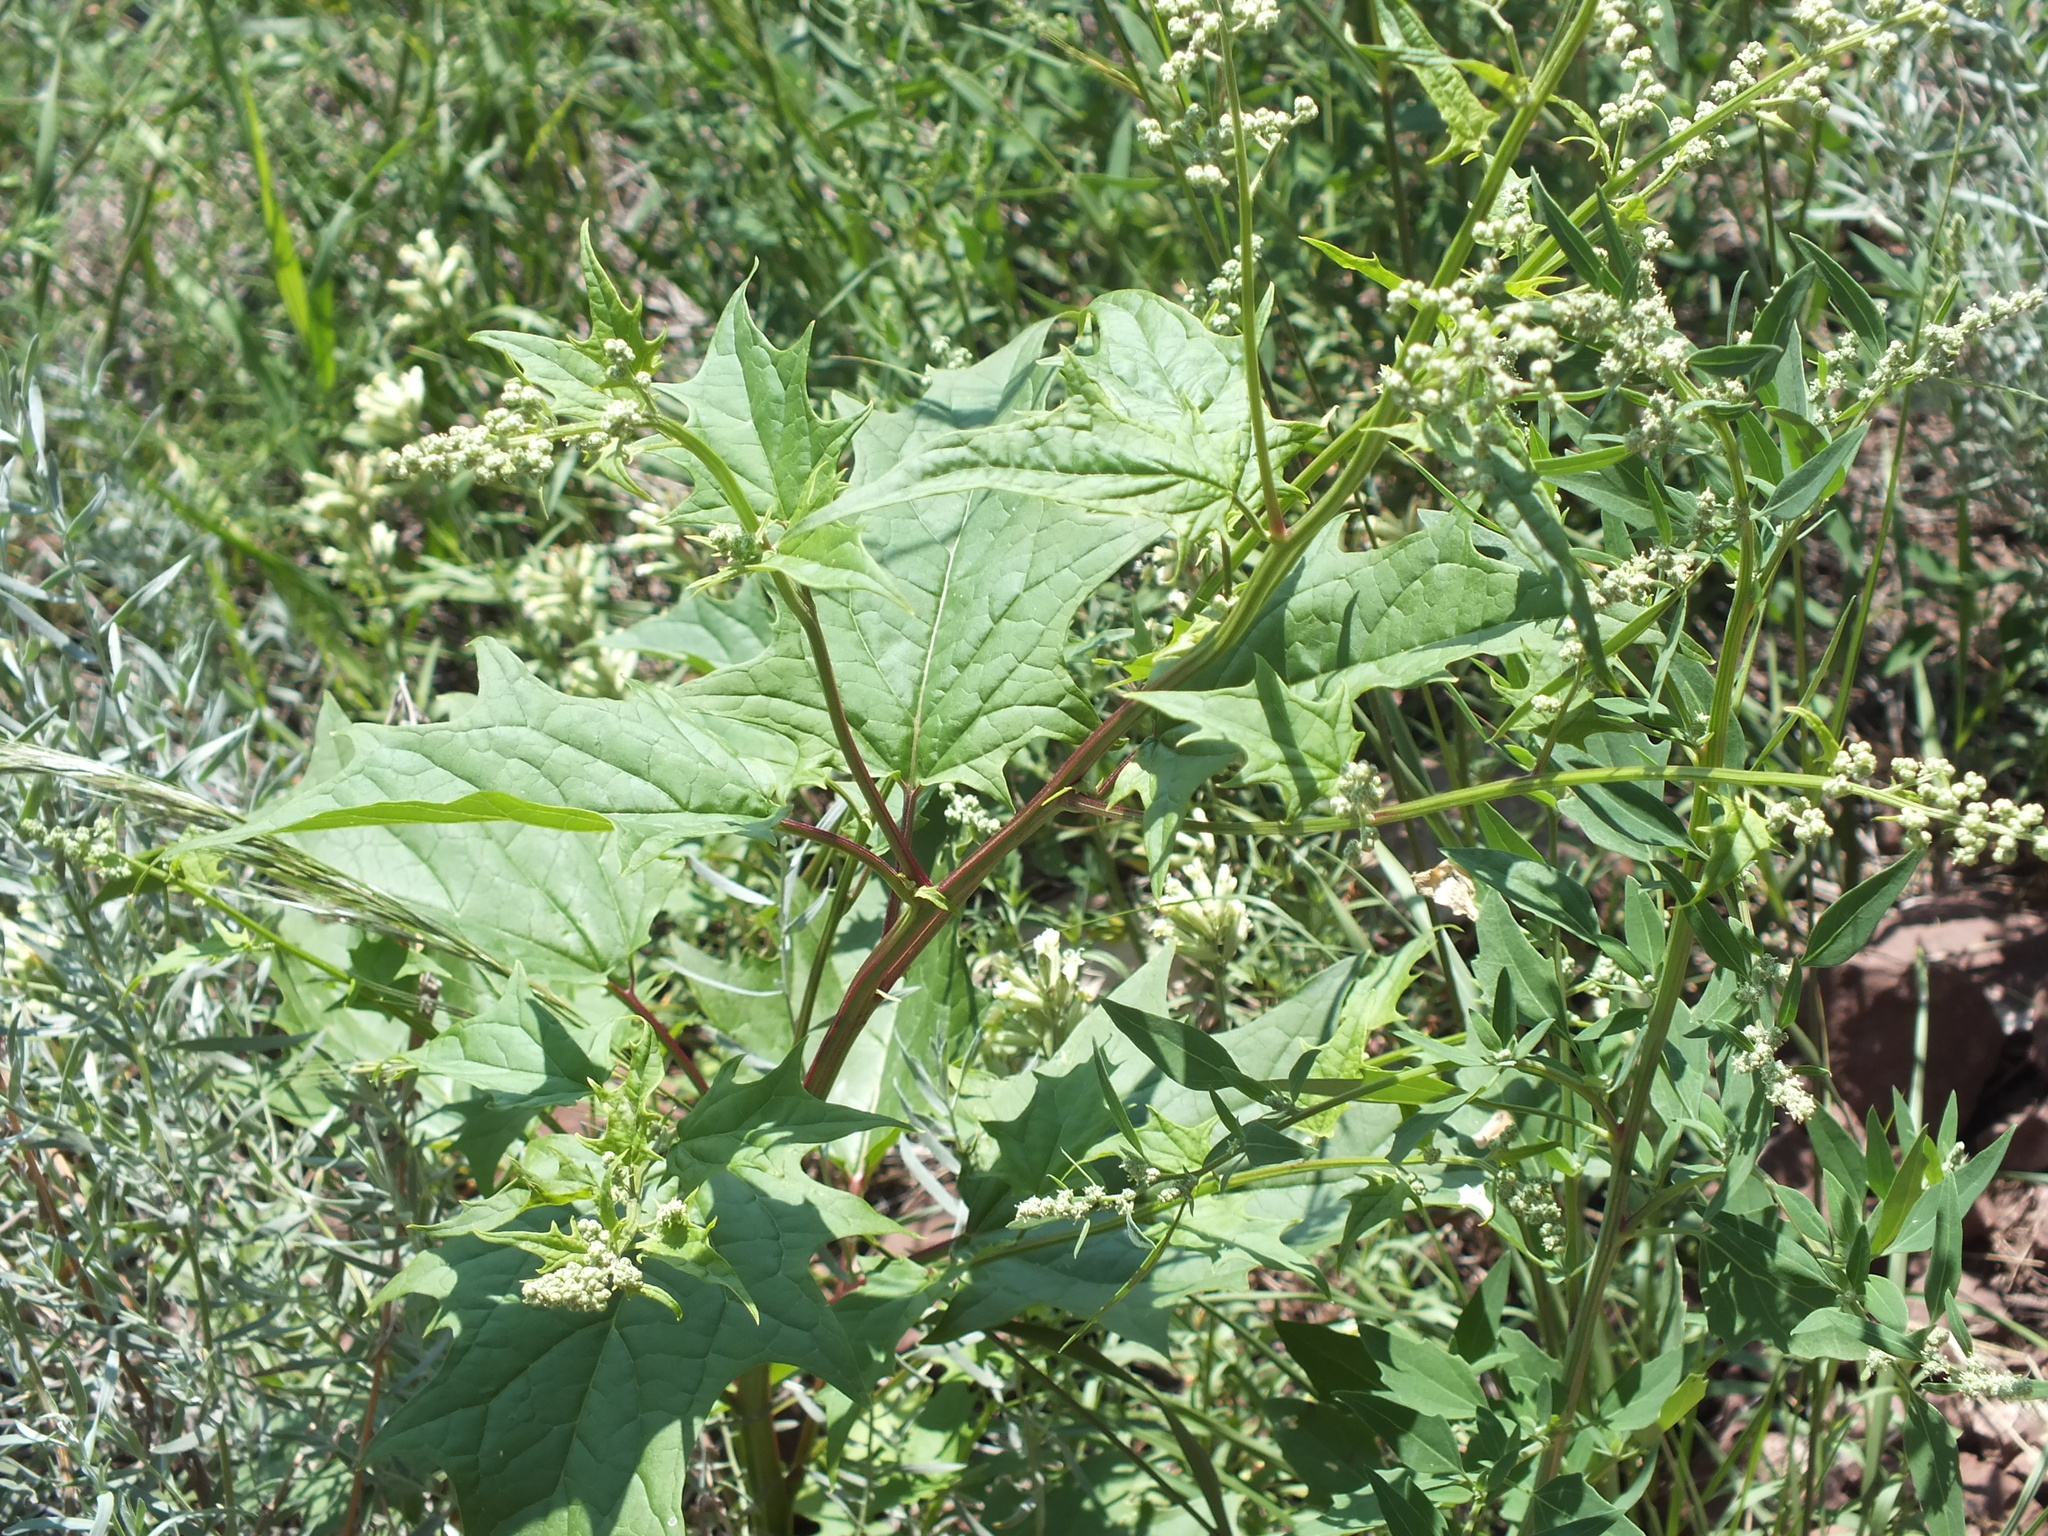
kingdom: Plantae
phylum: Tracheophyta
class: Magnoliopsida
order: Caryophyllales
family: Amaranthaceae
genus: Chenopodiastrum
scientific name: Chenopodiastrum hybridum
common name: Mapleleaf goosefoot
